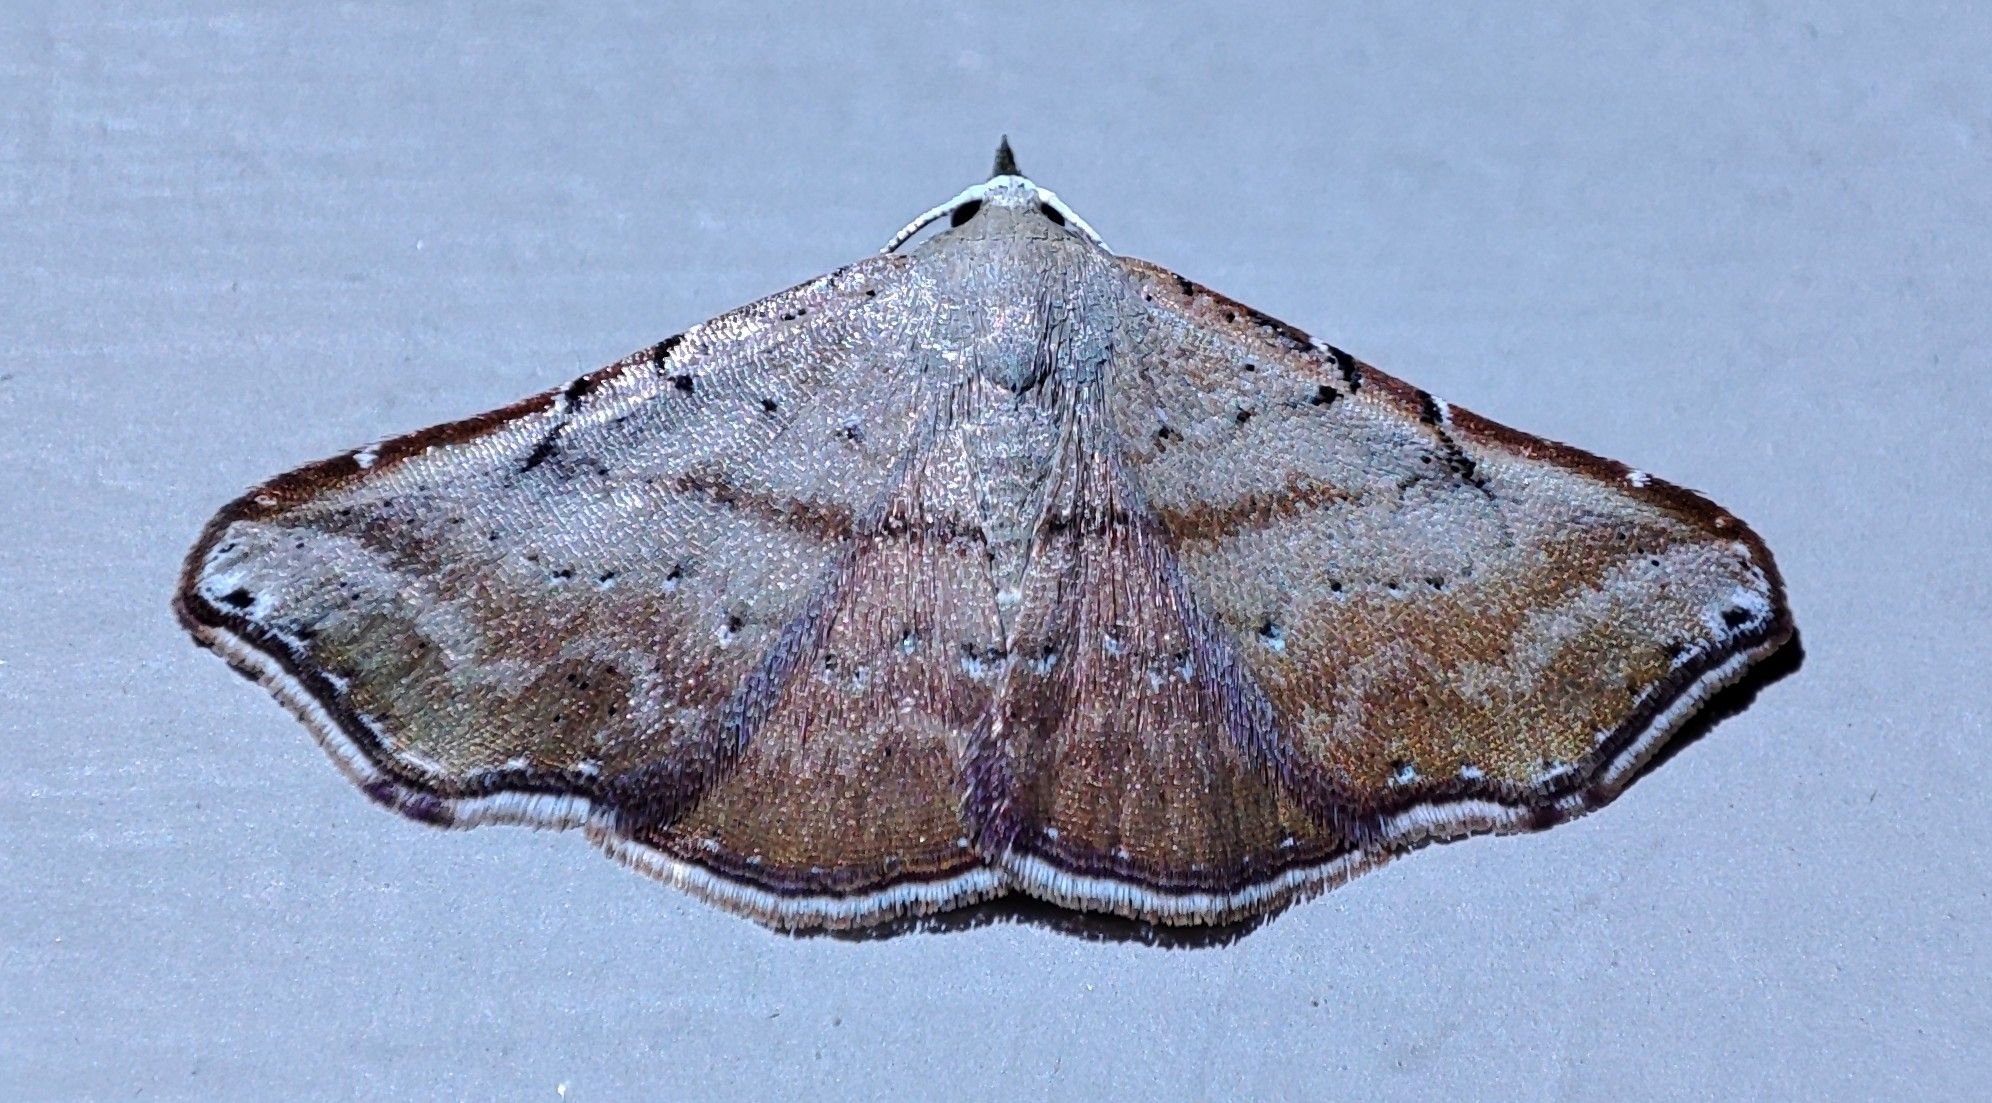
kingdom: Animalia
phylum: Arthropoda
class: Insecta
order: Lepidoptera
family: Erebidae
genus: Corgatha
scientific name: Corgatha producta
